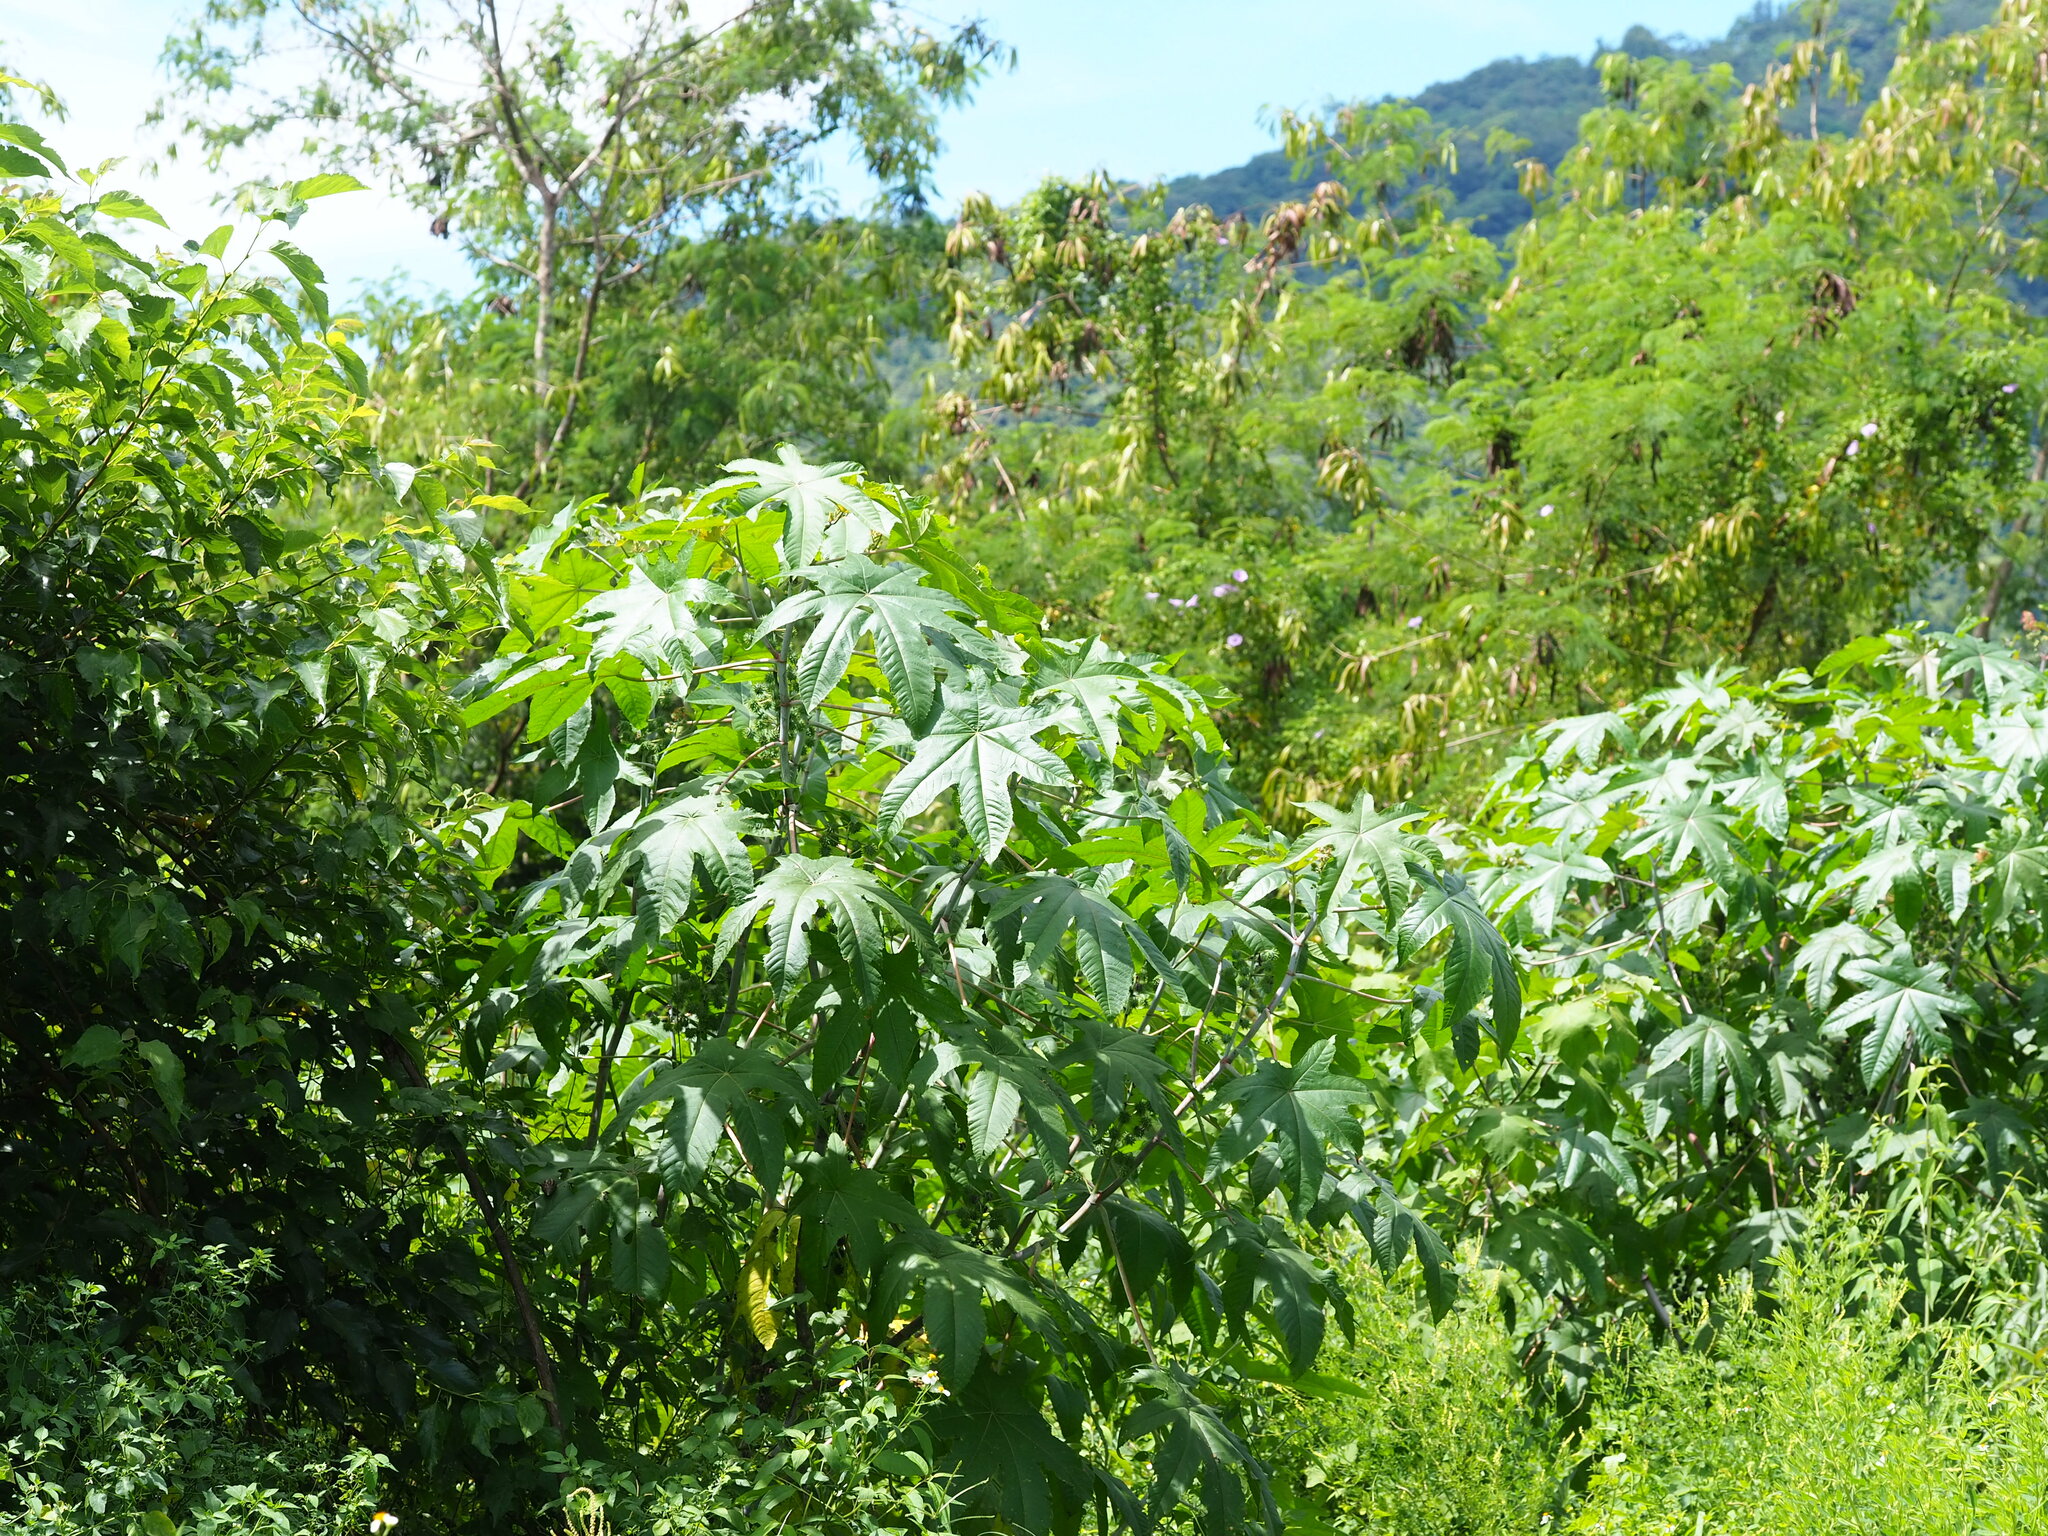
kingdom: Plantae
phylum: Tracheophyta
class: Magnoliopsida
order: Malpighiales
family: Euphorbiaceae
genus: Ricinus
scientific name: Ricinus communis
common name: Castor-oil-plant
